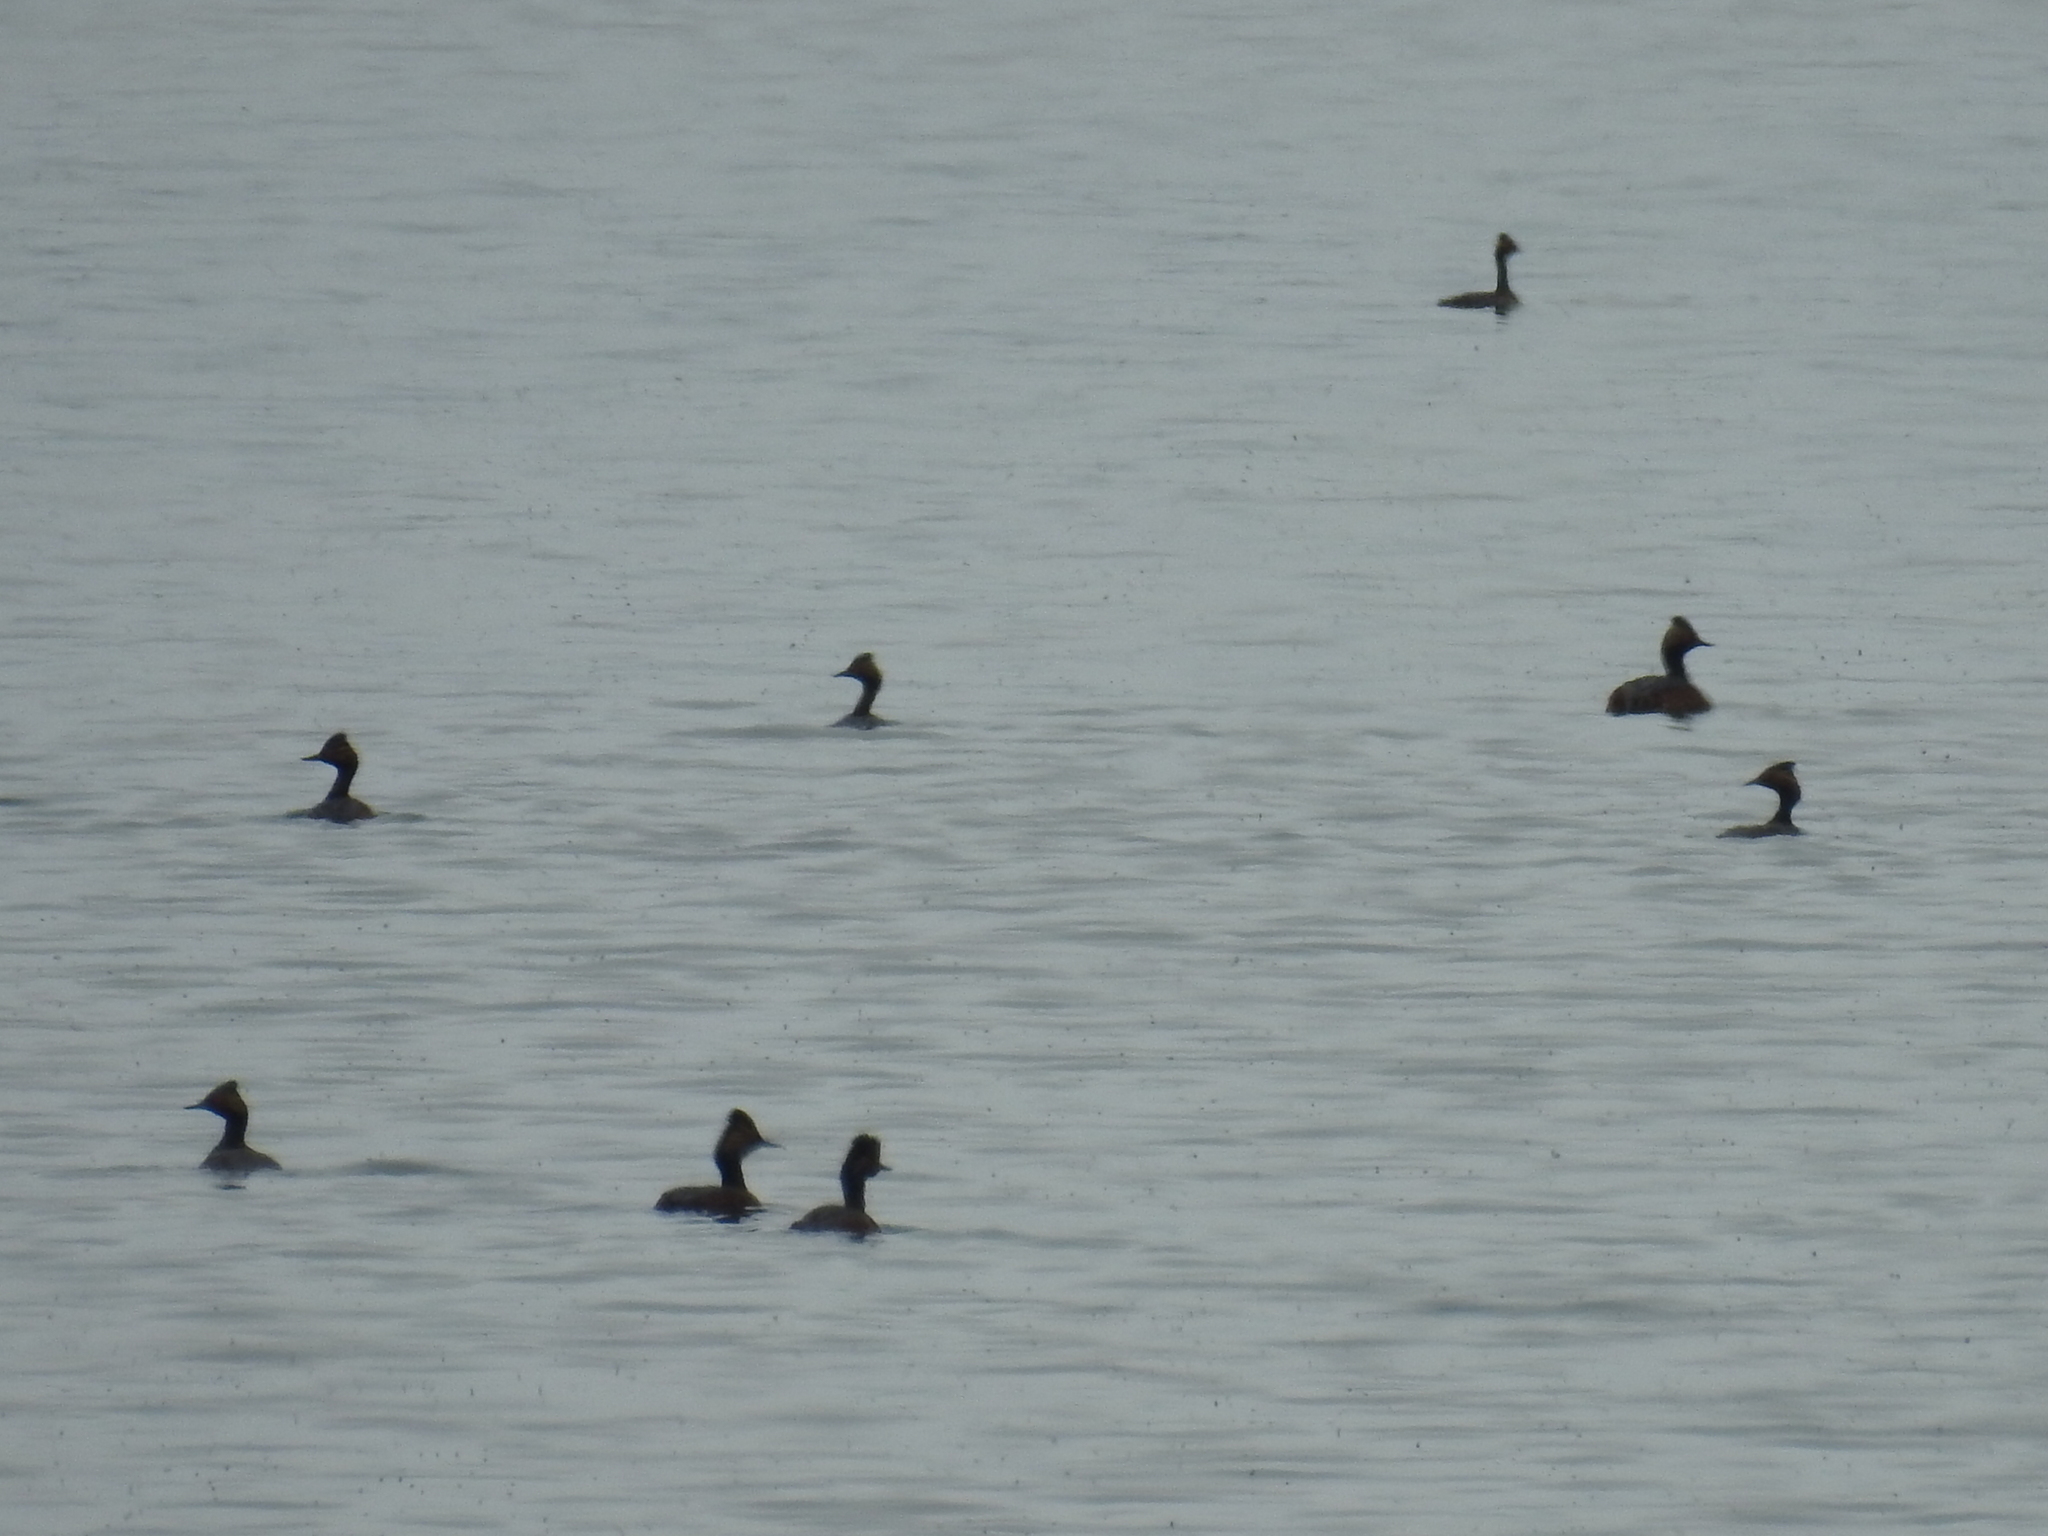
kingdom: Animalia
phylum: Chordata
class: Aves
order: Podicipediformes
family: Podicipedidae
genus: Podiceps
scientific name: Podiceps nigricollis
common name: Black-necked grebe
